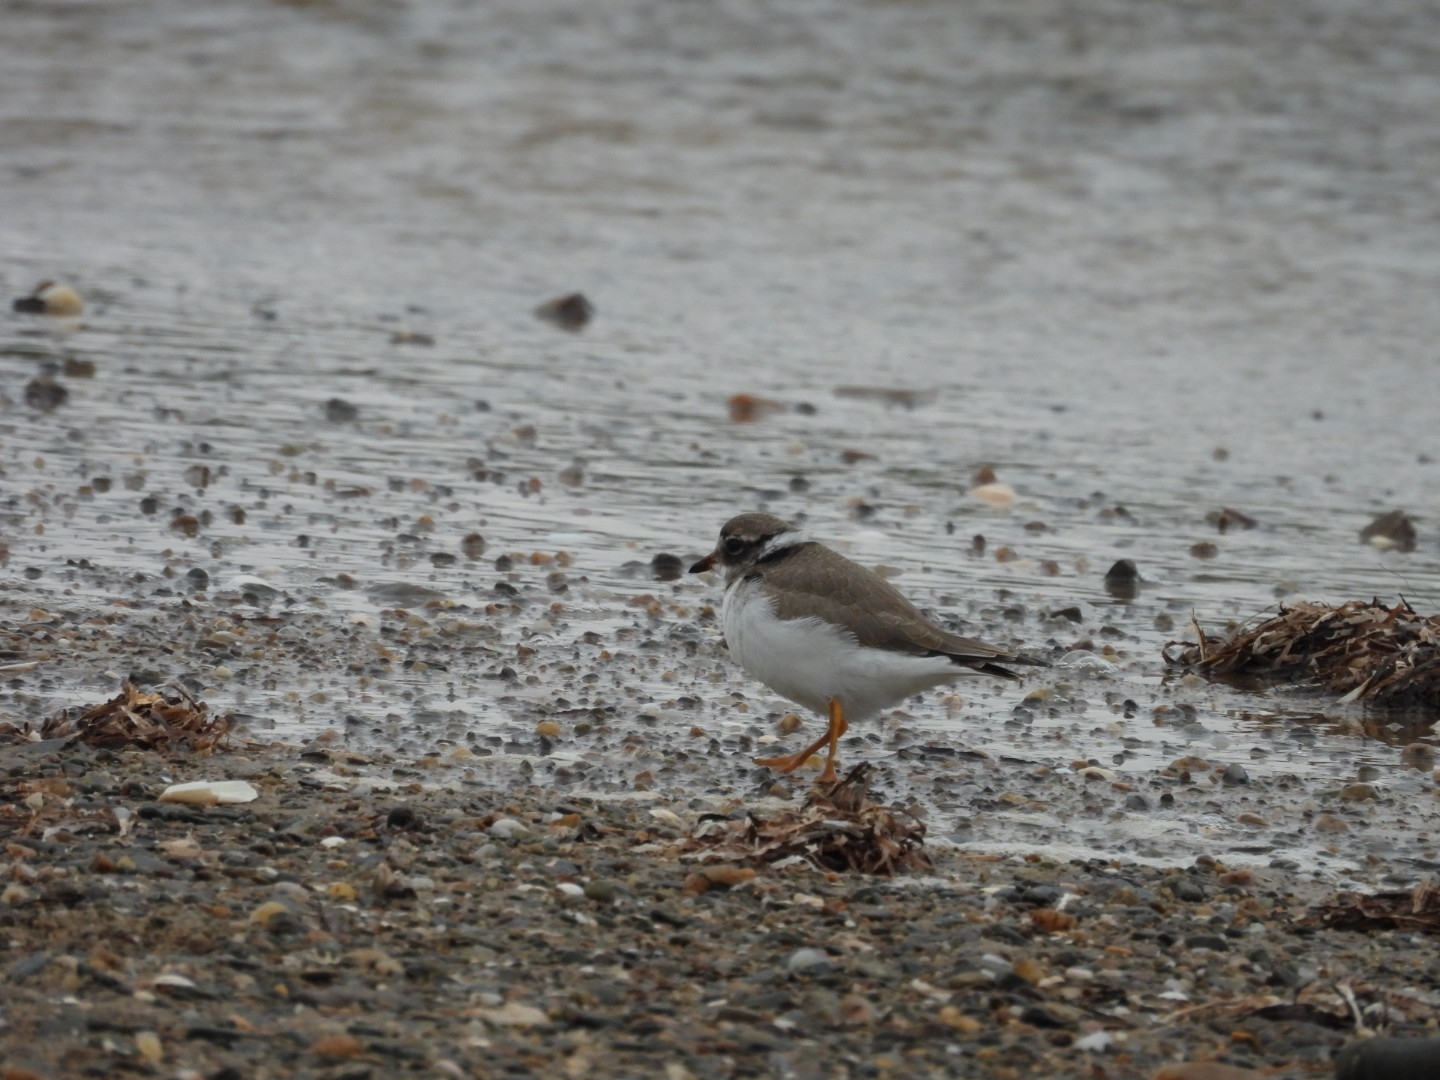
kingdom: Animalia
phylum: Chordata
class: Aves
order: Charadriiformes
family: Charadriidae
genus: Charadrius
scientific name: Charadrius hiaticula
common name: Common ringed plover
